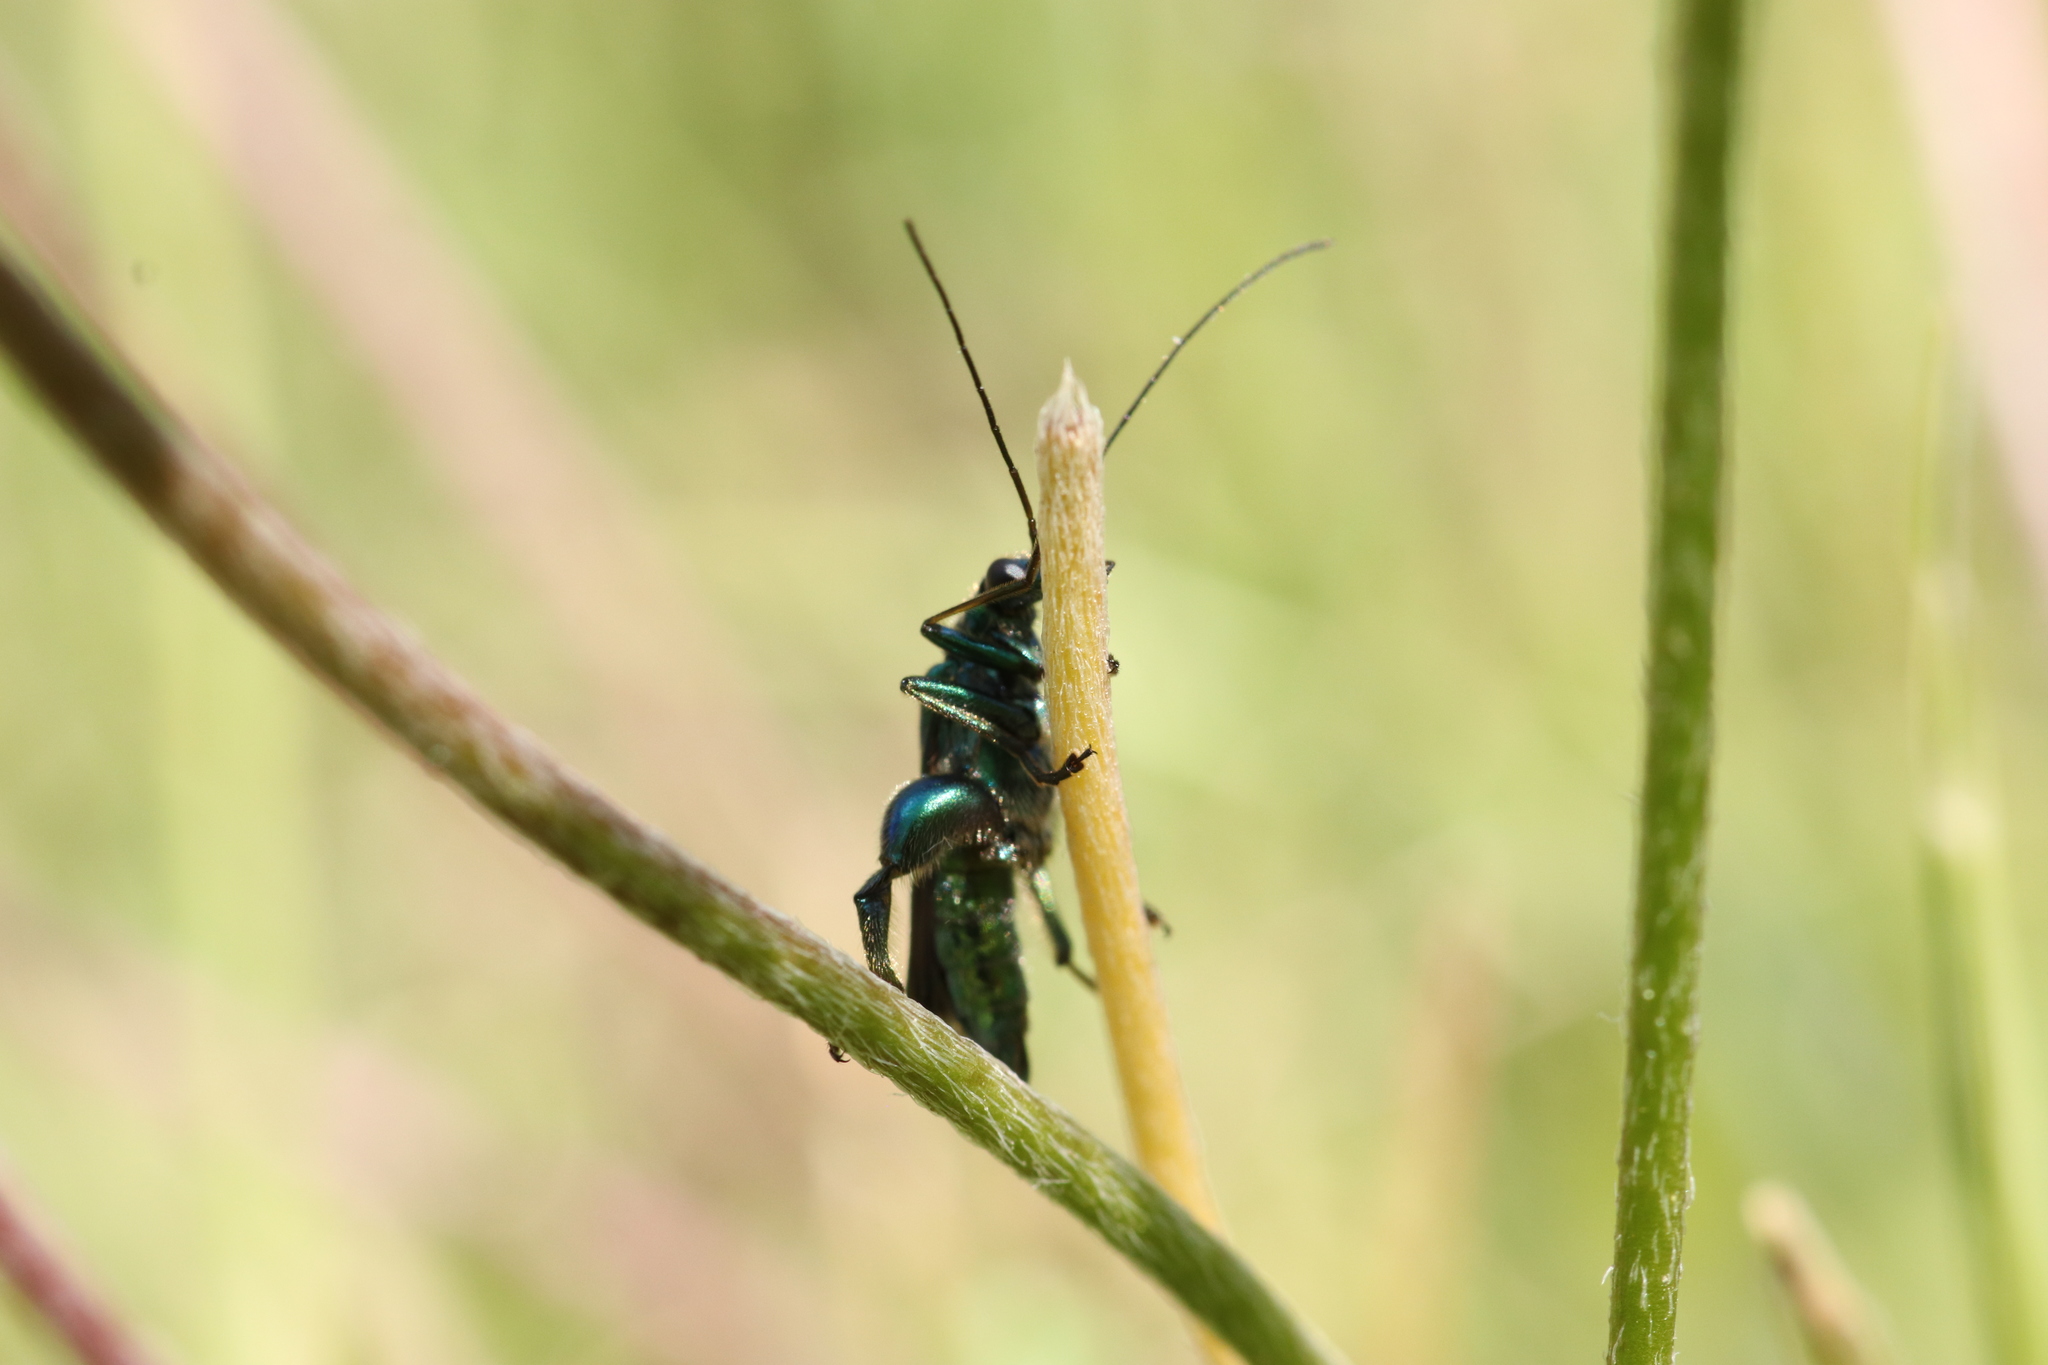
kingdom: Animalia
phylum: Arthropoda
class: Insecta
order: Coleoptera
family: Oedemeridae
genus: Oedemera
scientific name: Oedemera nobilis
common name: Swollen-thighed beetle
